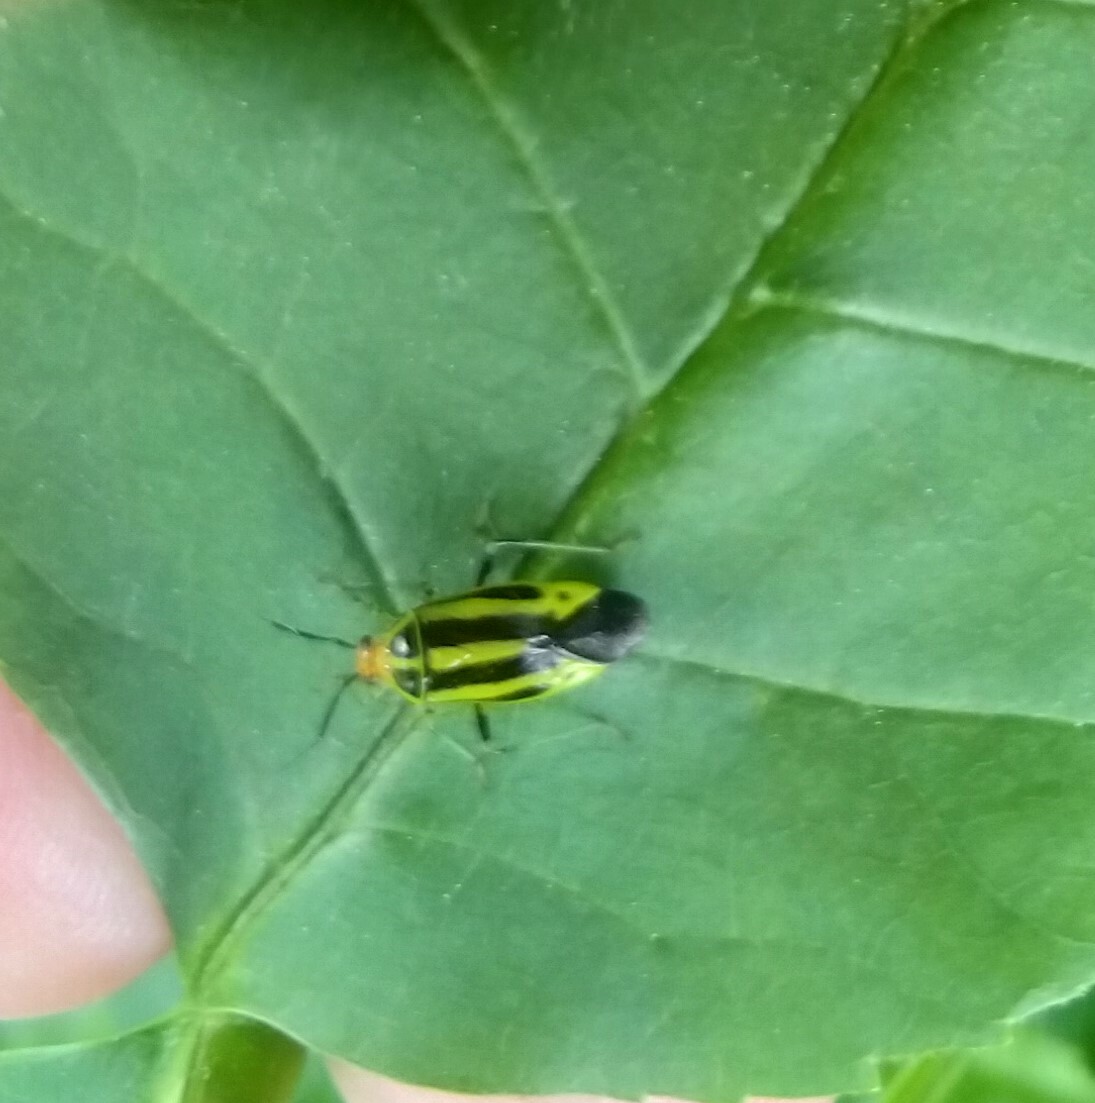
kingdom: Animalia
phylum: Arthropoda
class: Insecta
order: Hemiptera
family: Miridae
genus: Poecilocapsus
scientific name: Poecilocapsus lineatus
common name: Four-lined plant bug
